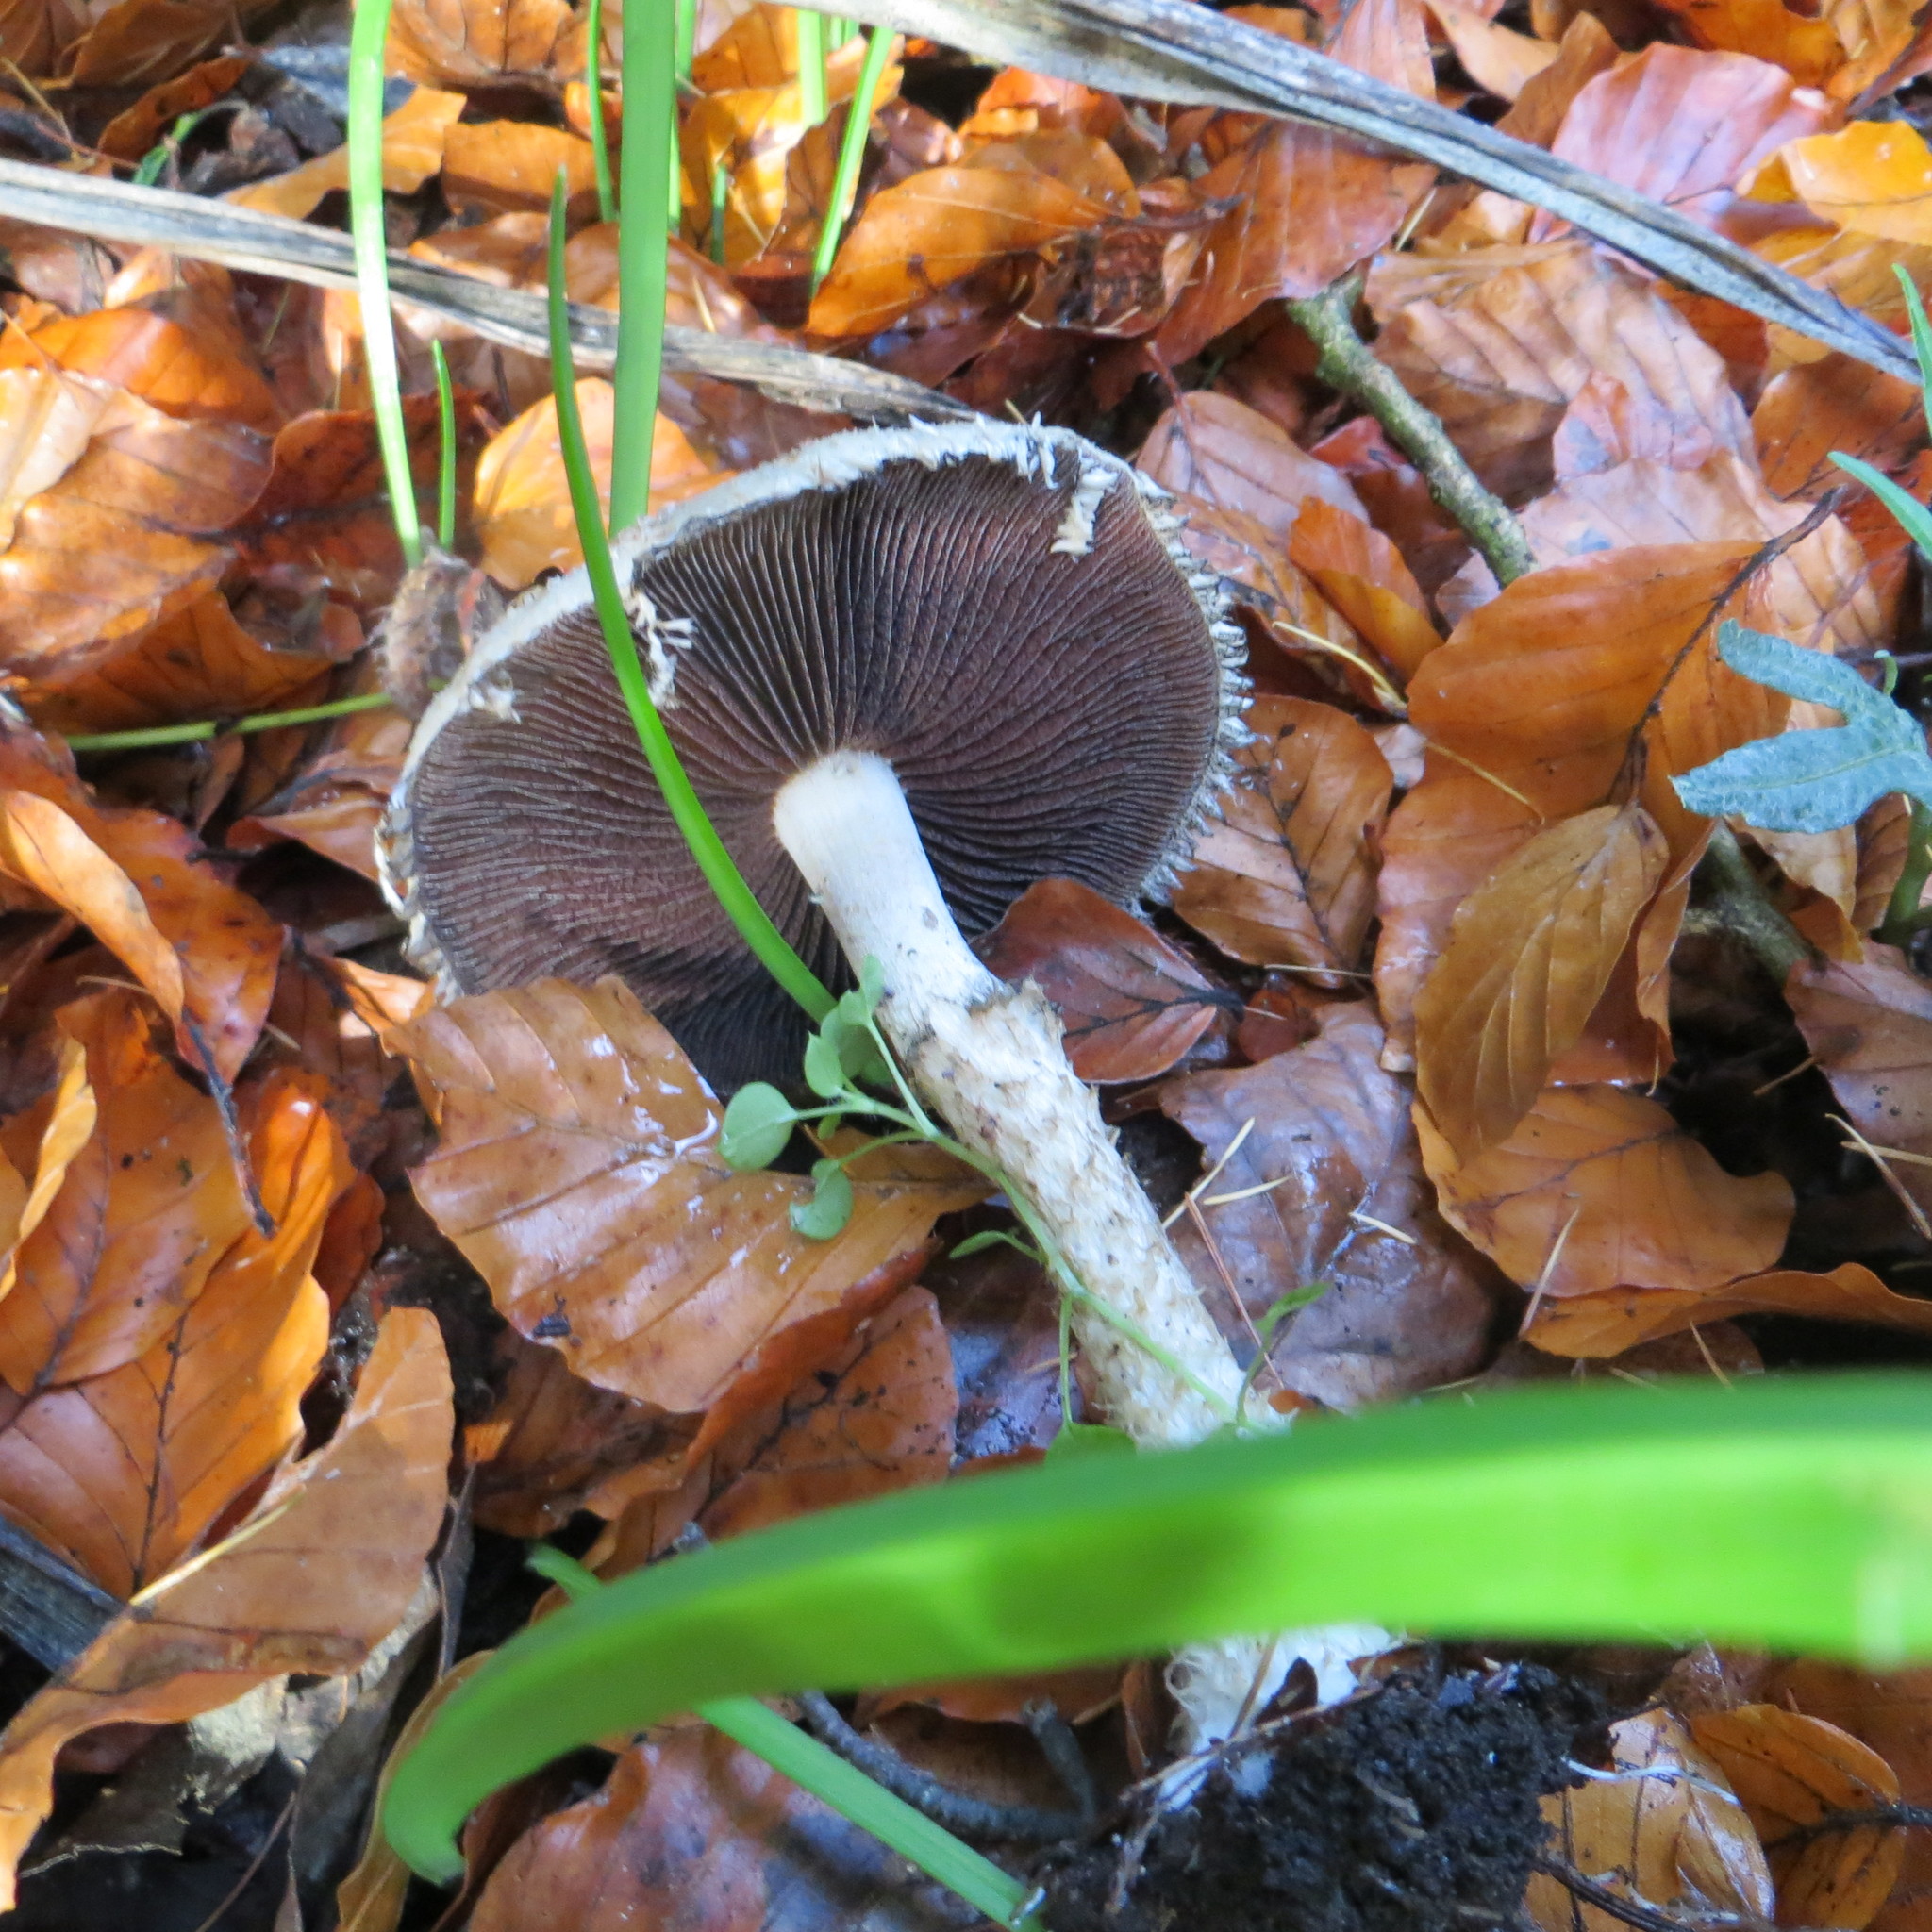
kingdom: Fungi
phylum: Basidiomycota
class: Agaricomycetes
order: Agaricales
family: Psathyrellaceae
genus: Psathyrella
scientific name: Psathyrella asperospora
